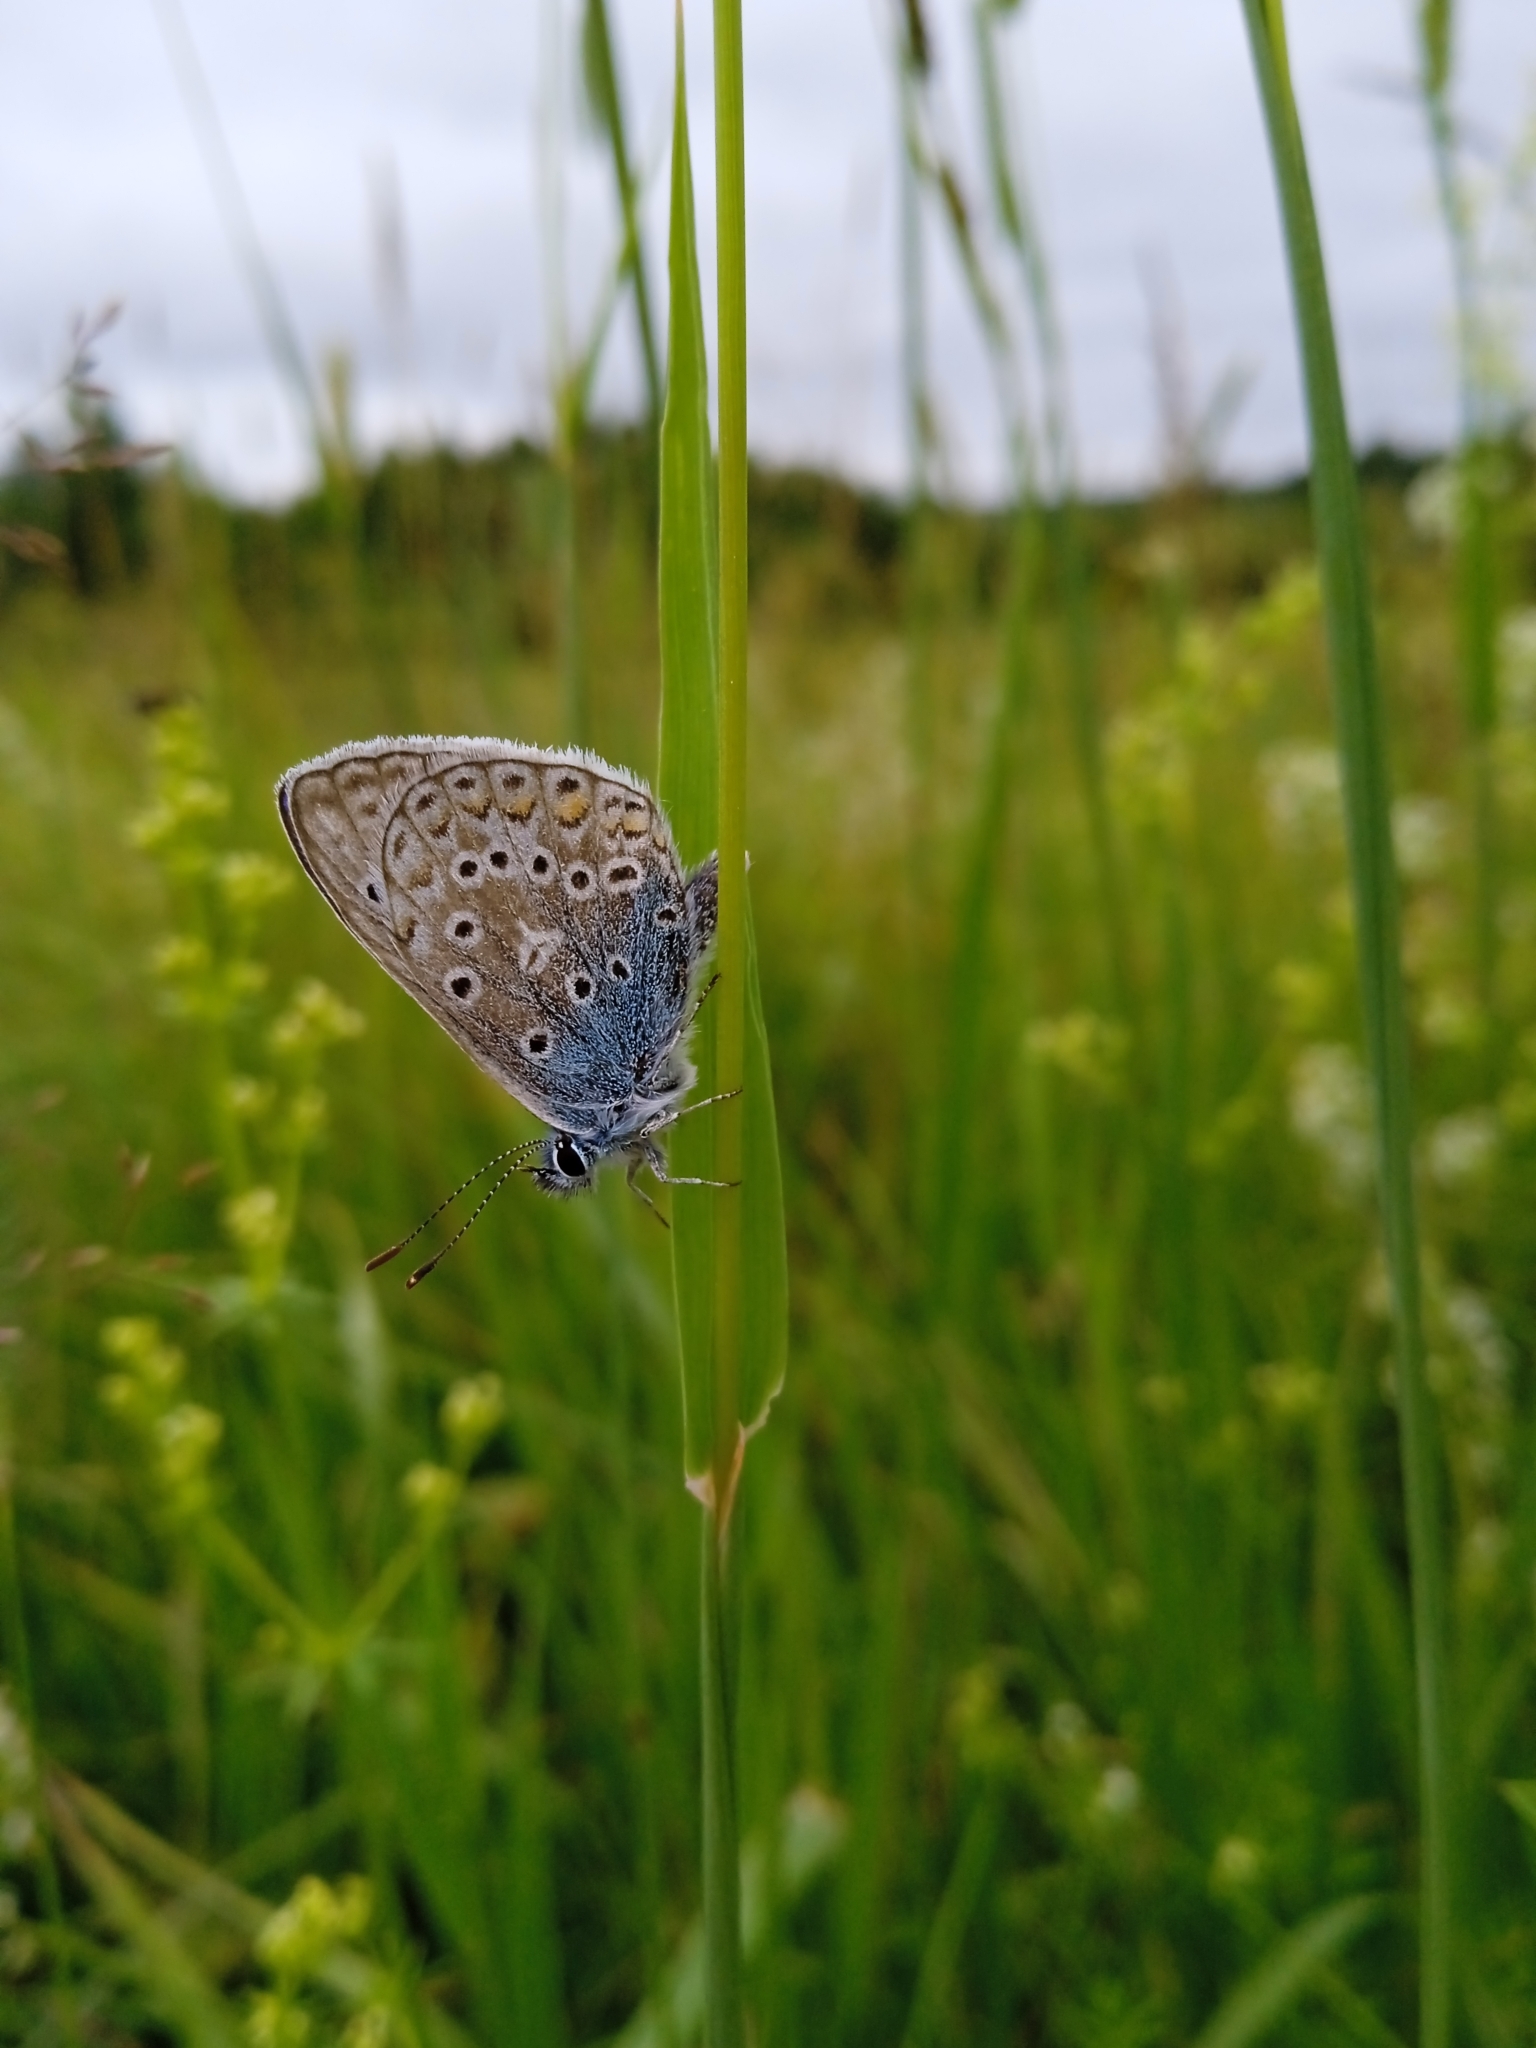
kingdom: Animalia
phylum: Arthropoda
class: Insecta
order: Lepidoptera
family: Lycaenidae
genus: Polyommatus
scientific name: Polyommatus icarus
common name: Common blue
